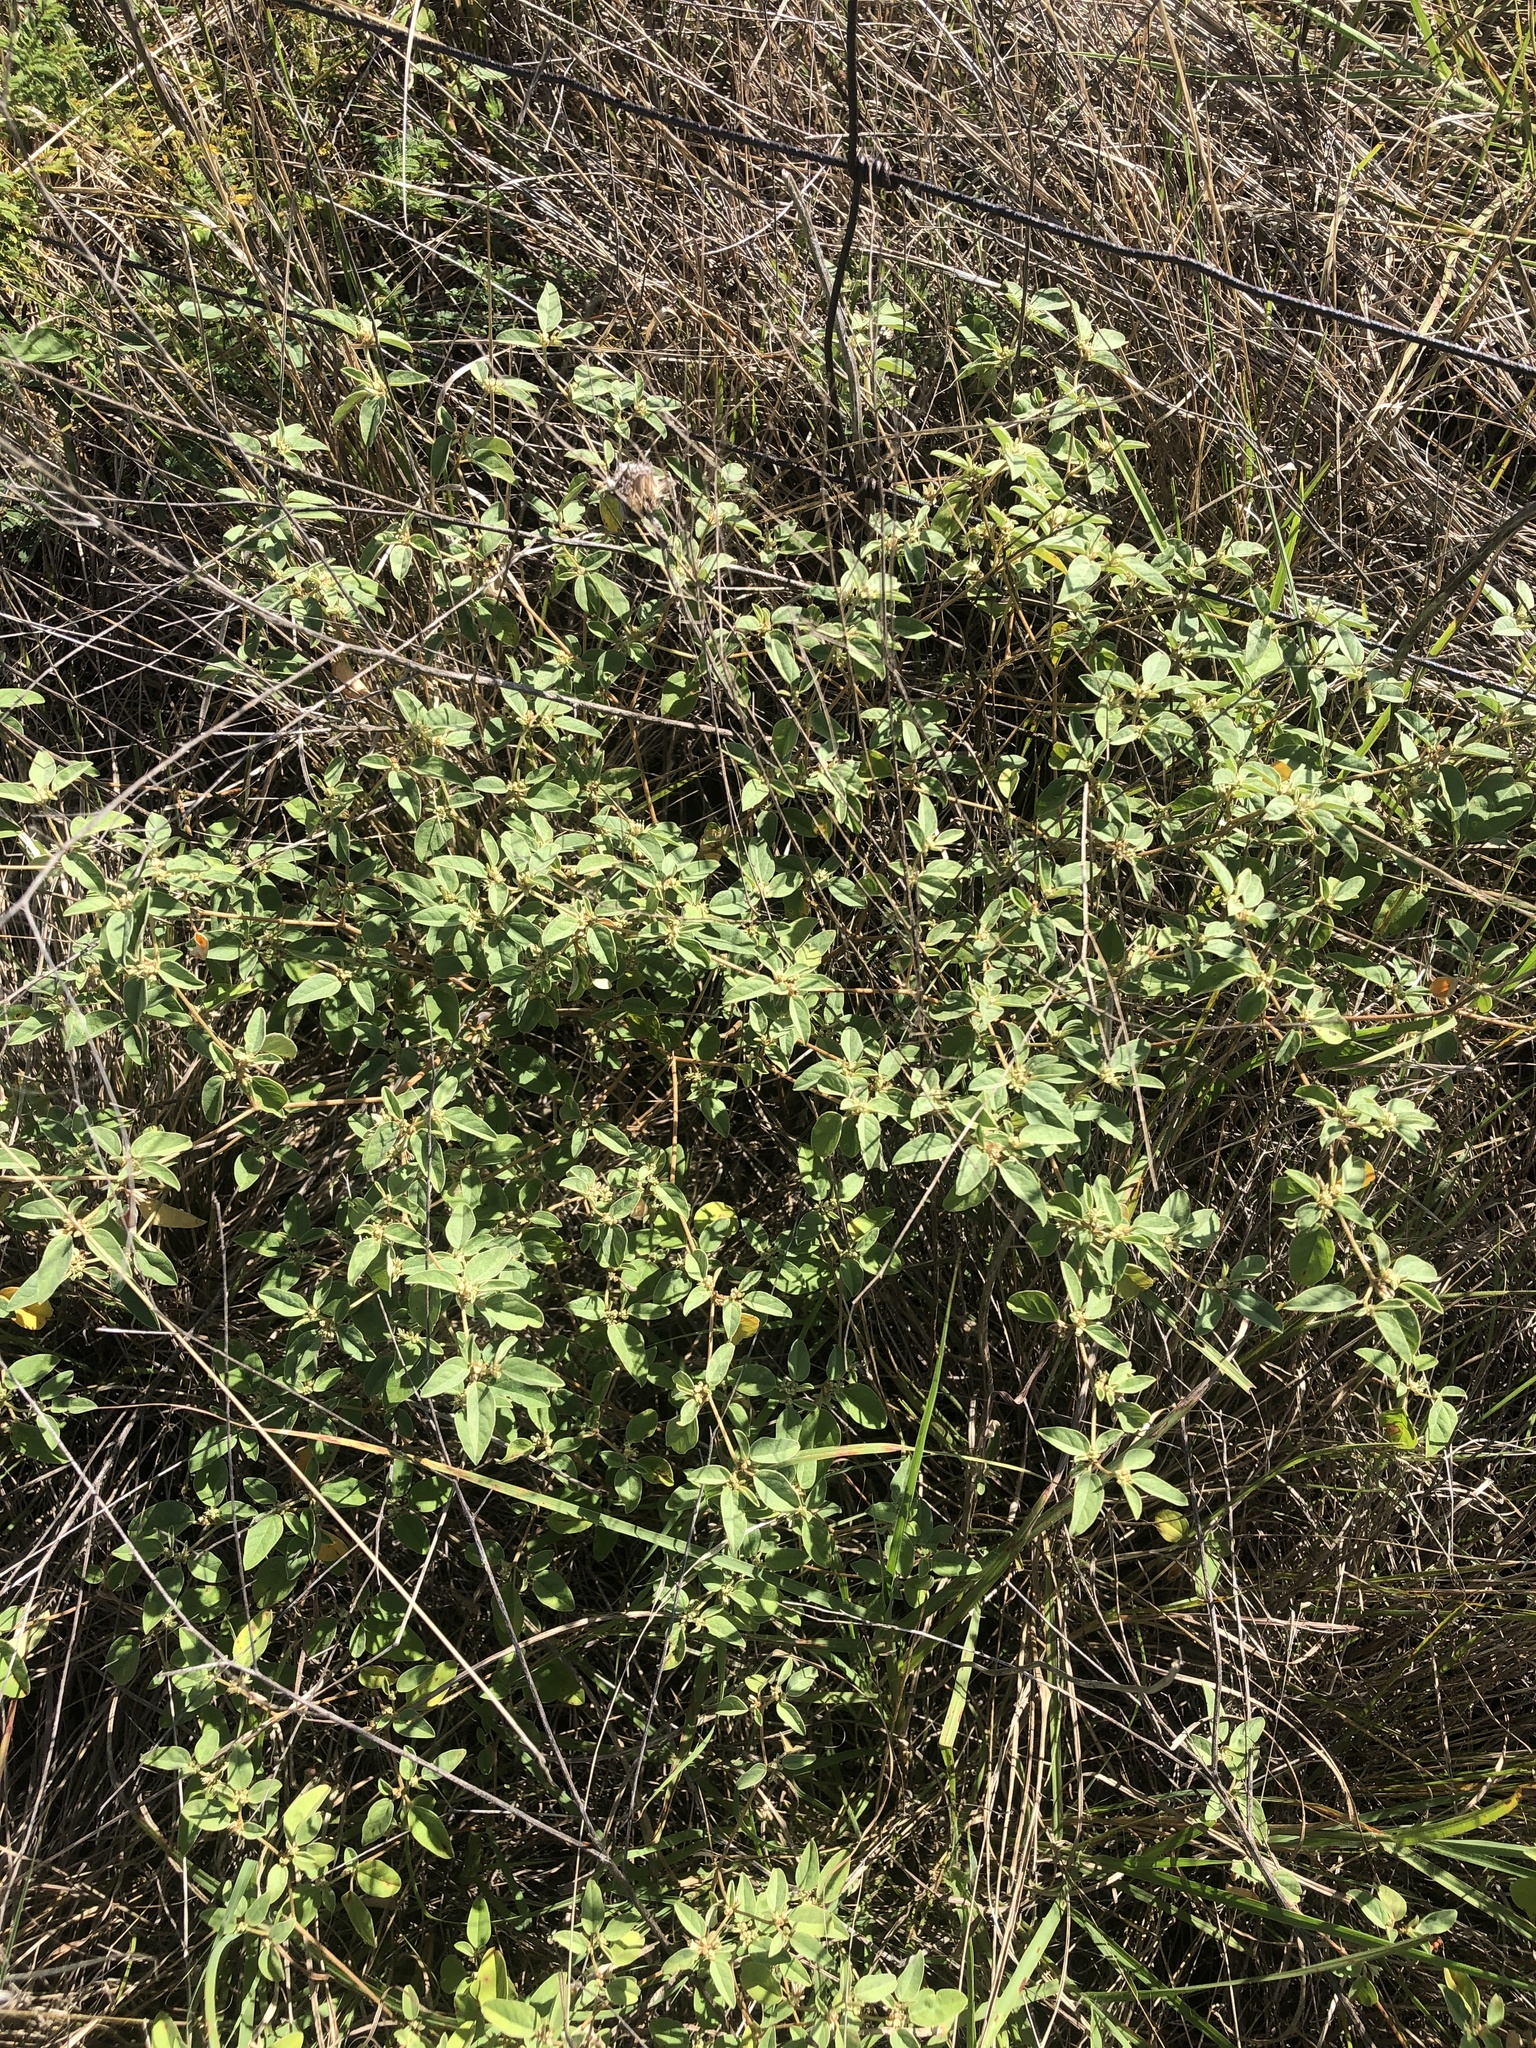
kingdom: Plantae
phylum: Tracheophyta
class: Magnoliopsida
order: Malpighiales
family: Euphorbiaceae
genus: Croton
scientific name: Croton monanthogynus
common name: One-seed croton
